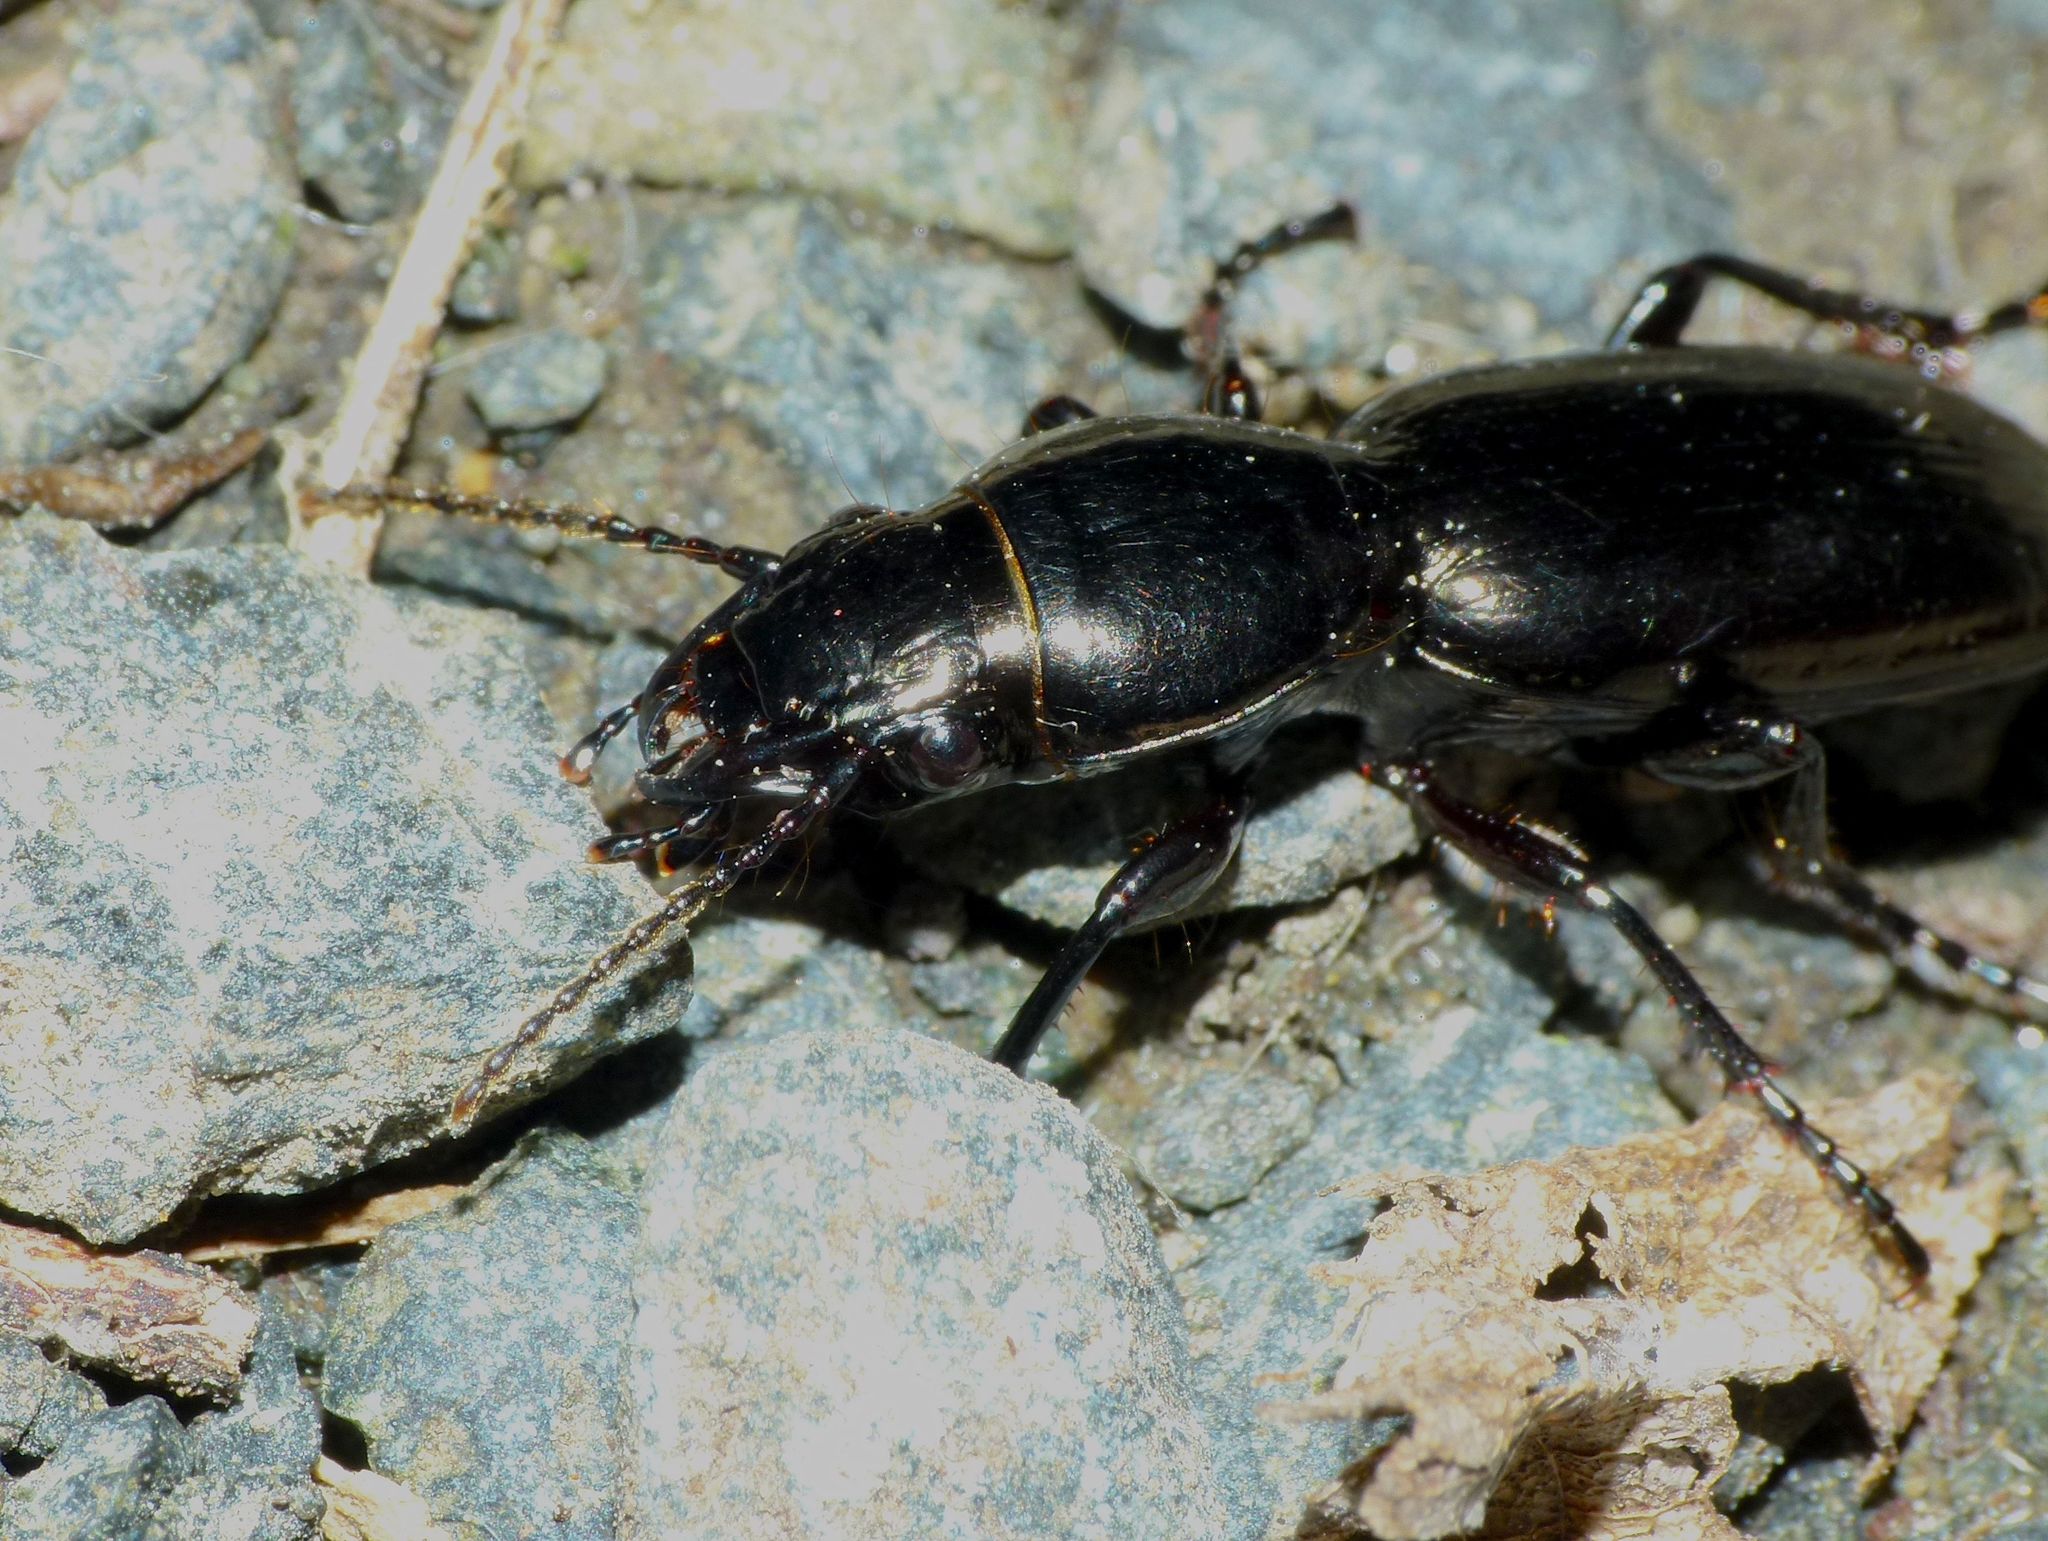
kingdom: Animalia
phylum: Arthropoda
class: Insecta
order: Coleoptera
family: Carabidae
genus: Oregus
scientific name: Oregus aereus
